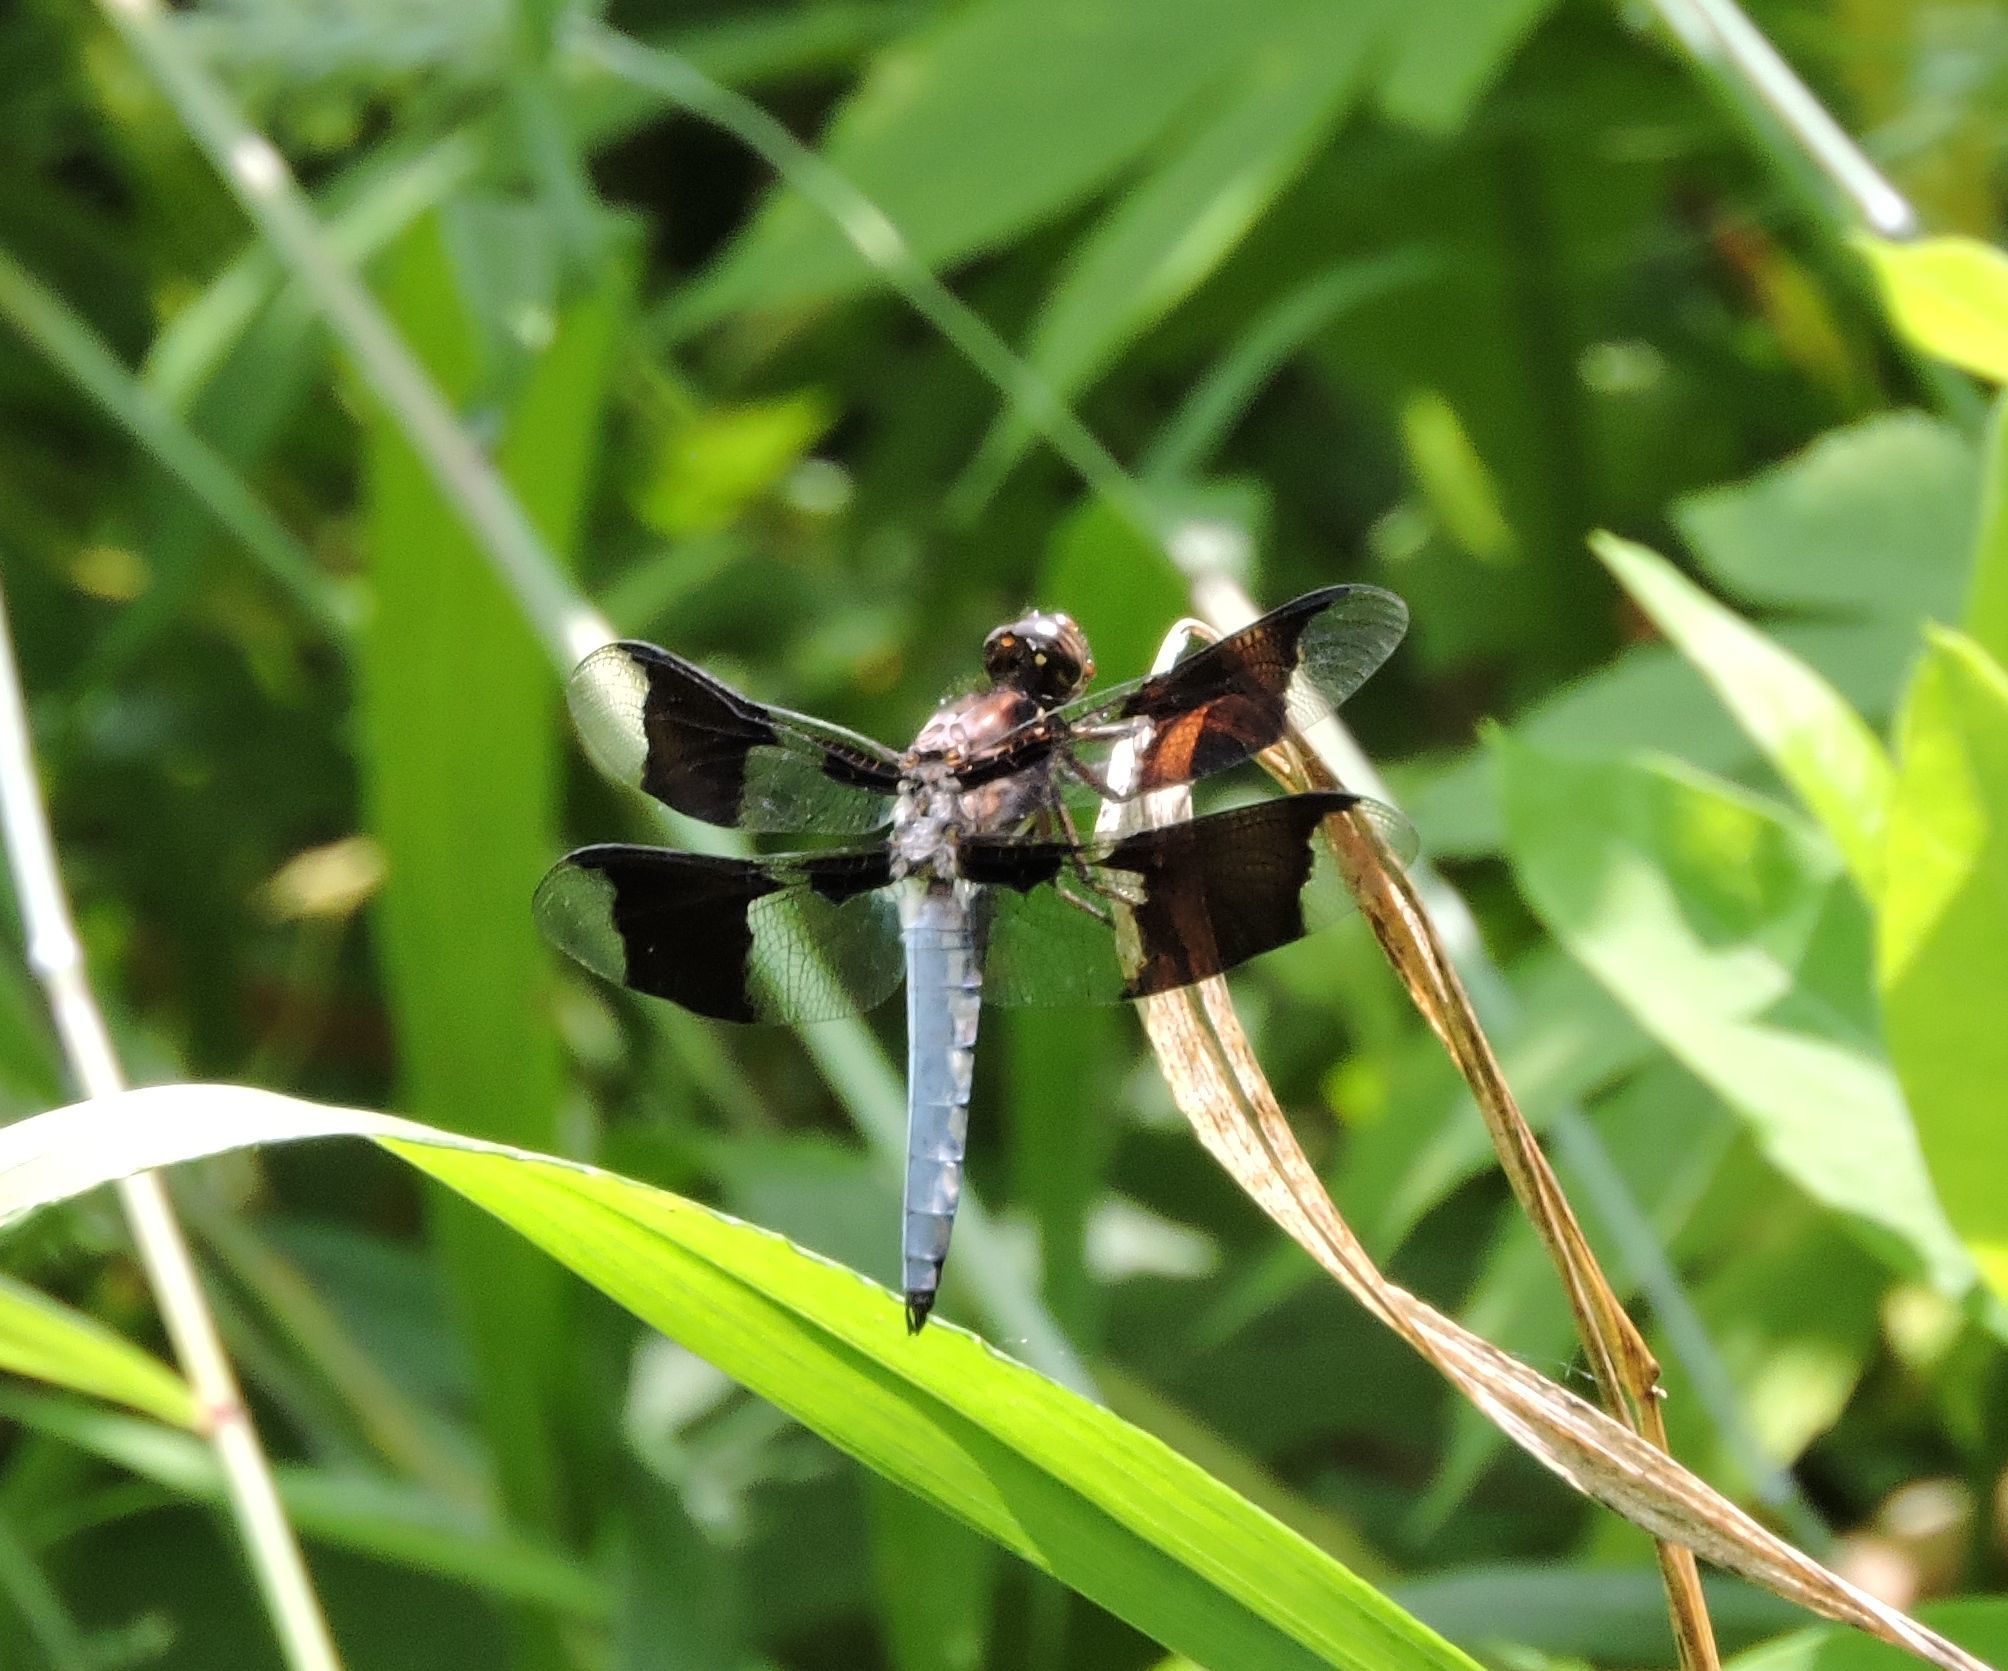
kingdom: Animalia
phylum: Arthropoda
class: Insecta
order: Odonata
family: Libellulidae
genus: Plathemis
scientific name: Plathemis lydia
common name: Common whitetail
